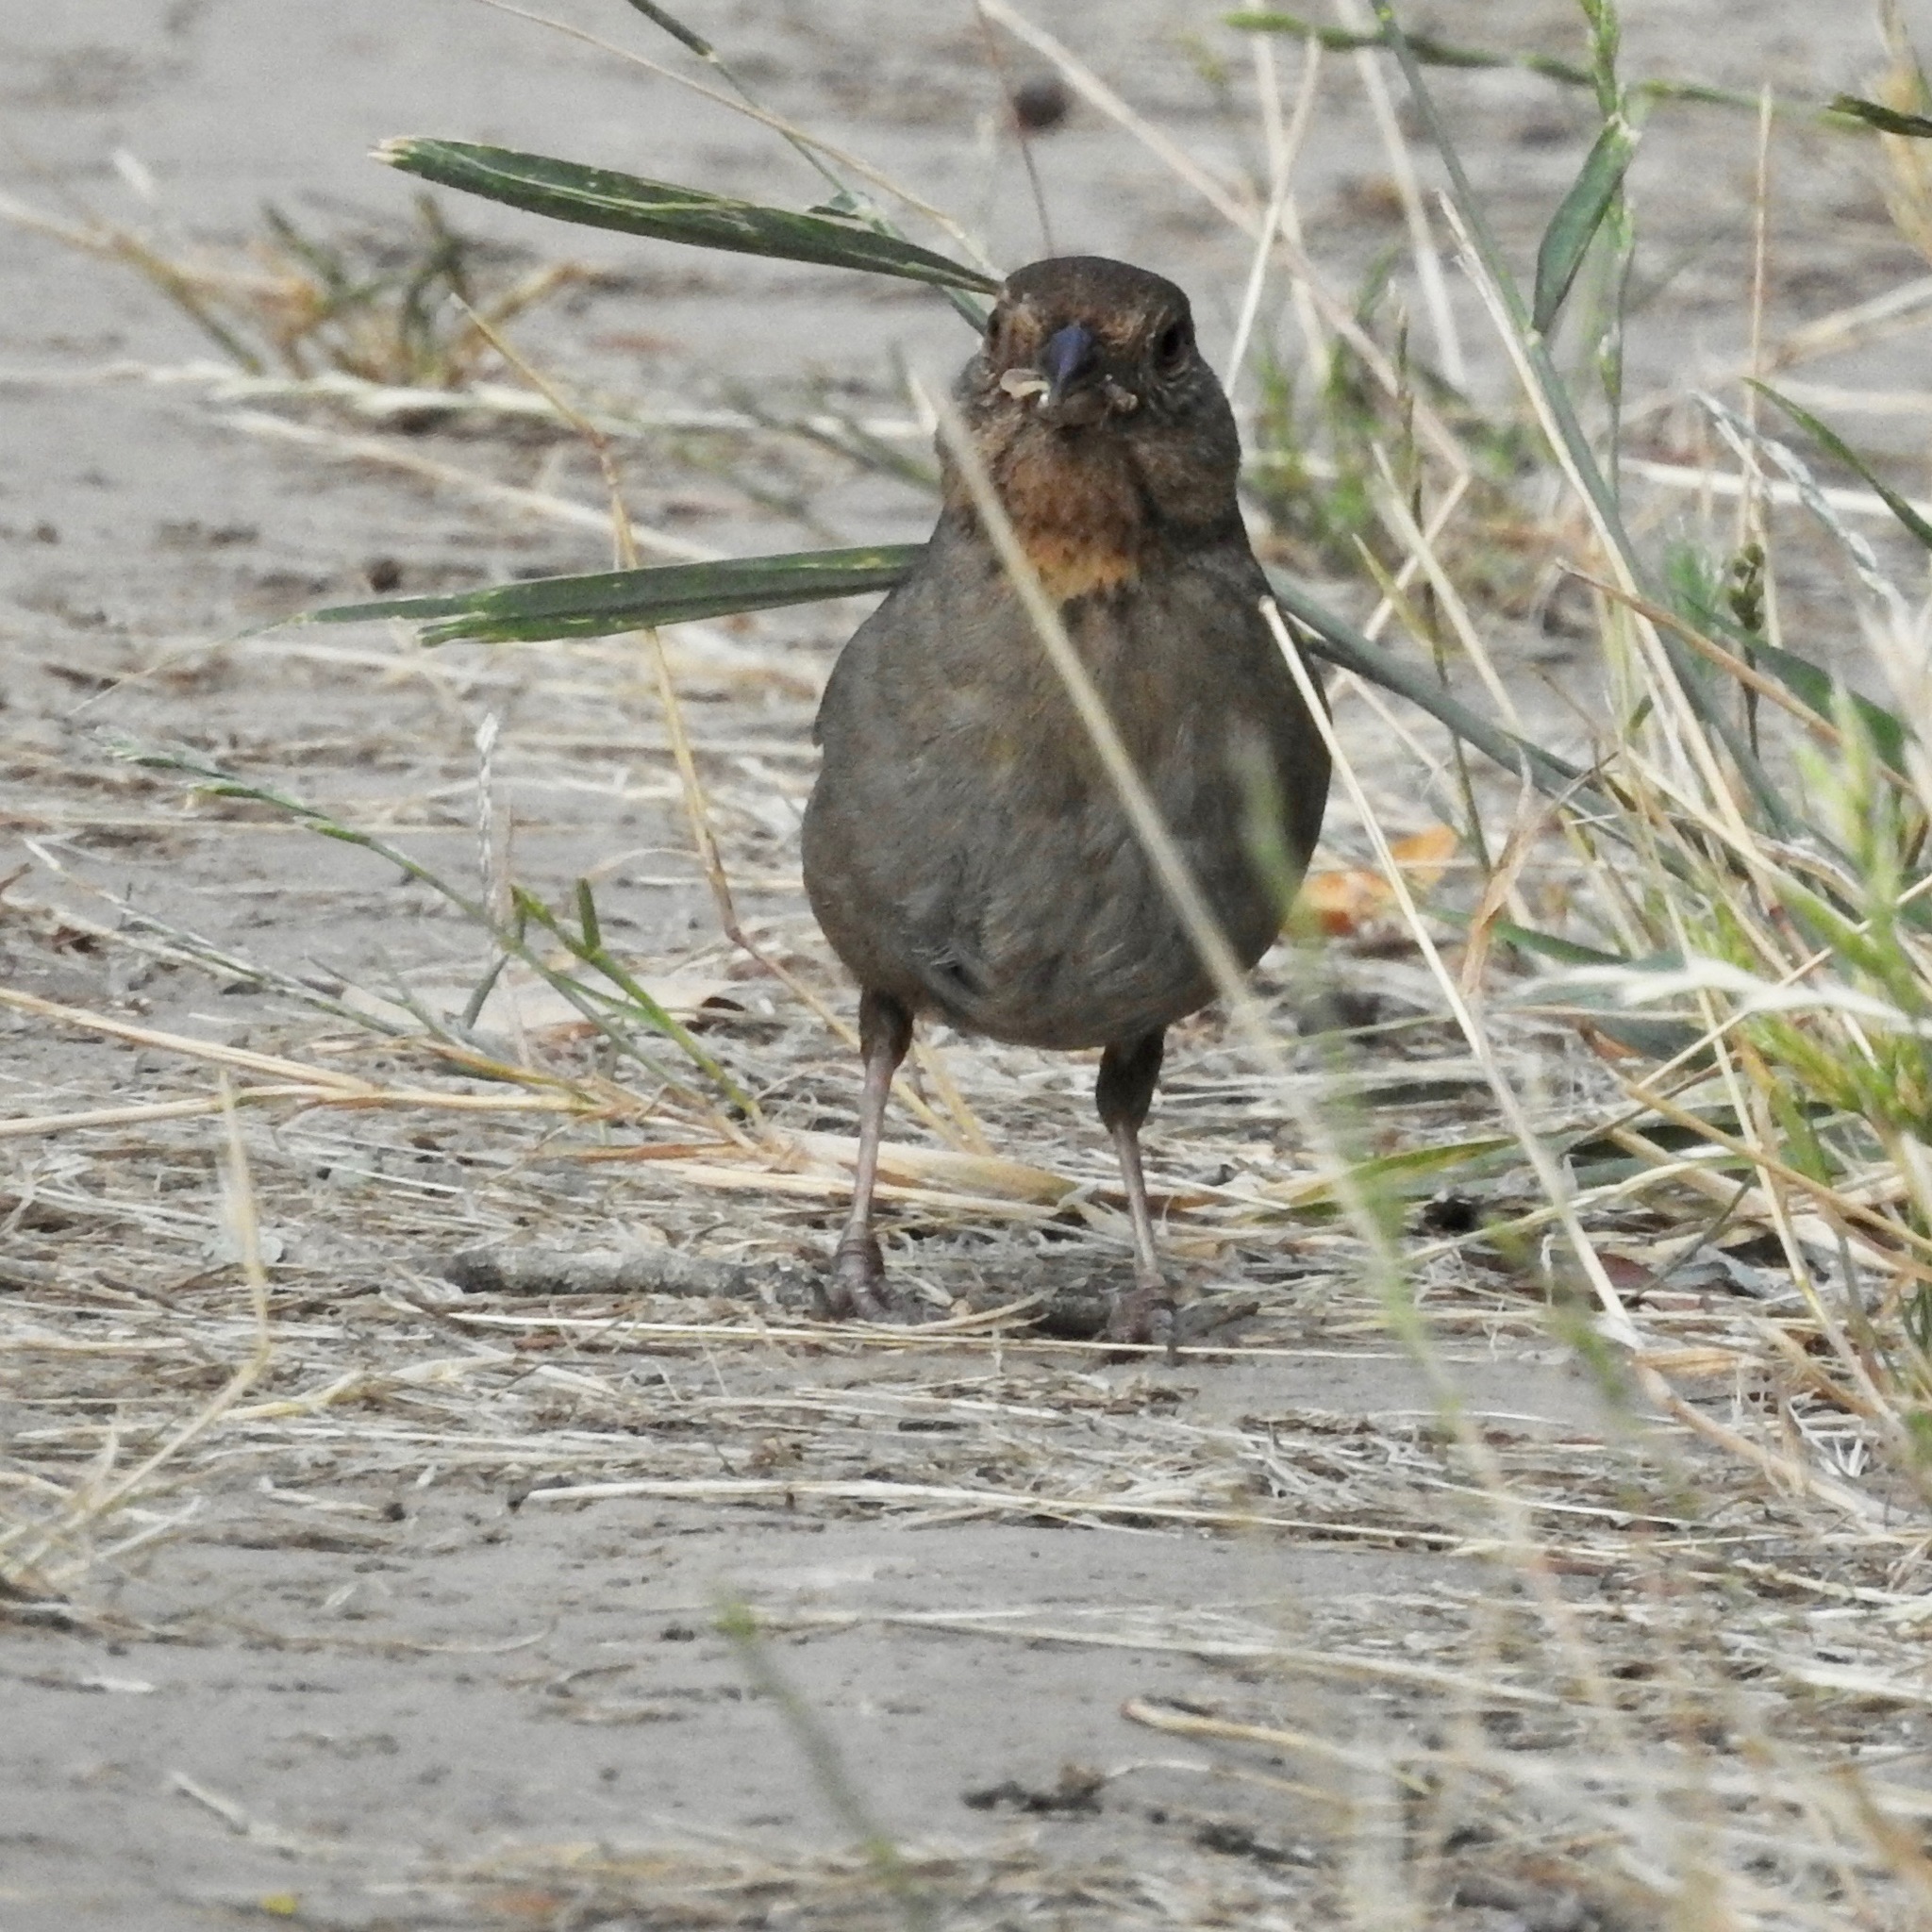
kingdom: Animalia
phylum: Chordata
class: Aves
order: Passeriformes
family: Passerellidae
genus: Melozone
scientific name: Melozone crissalis
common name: California towhee
